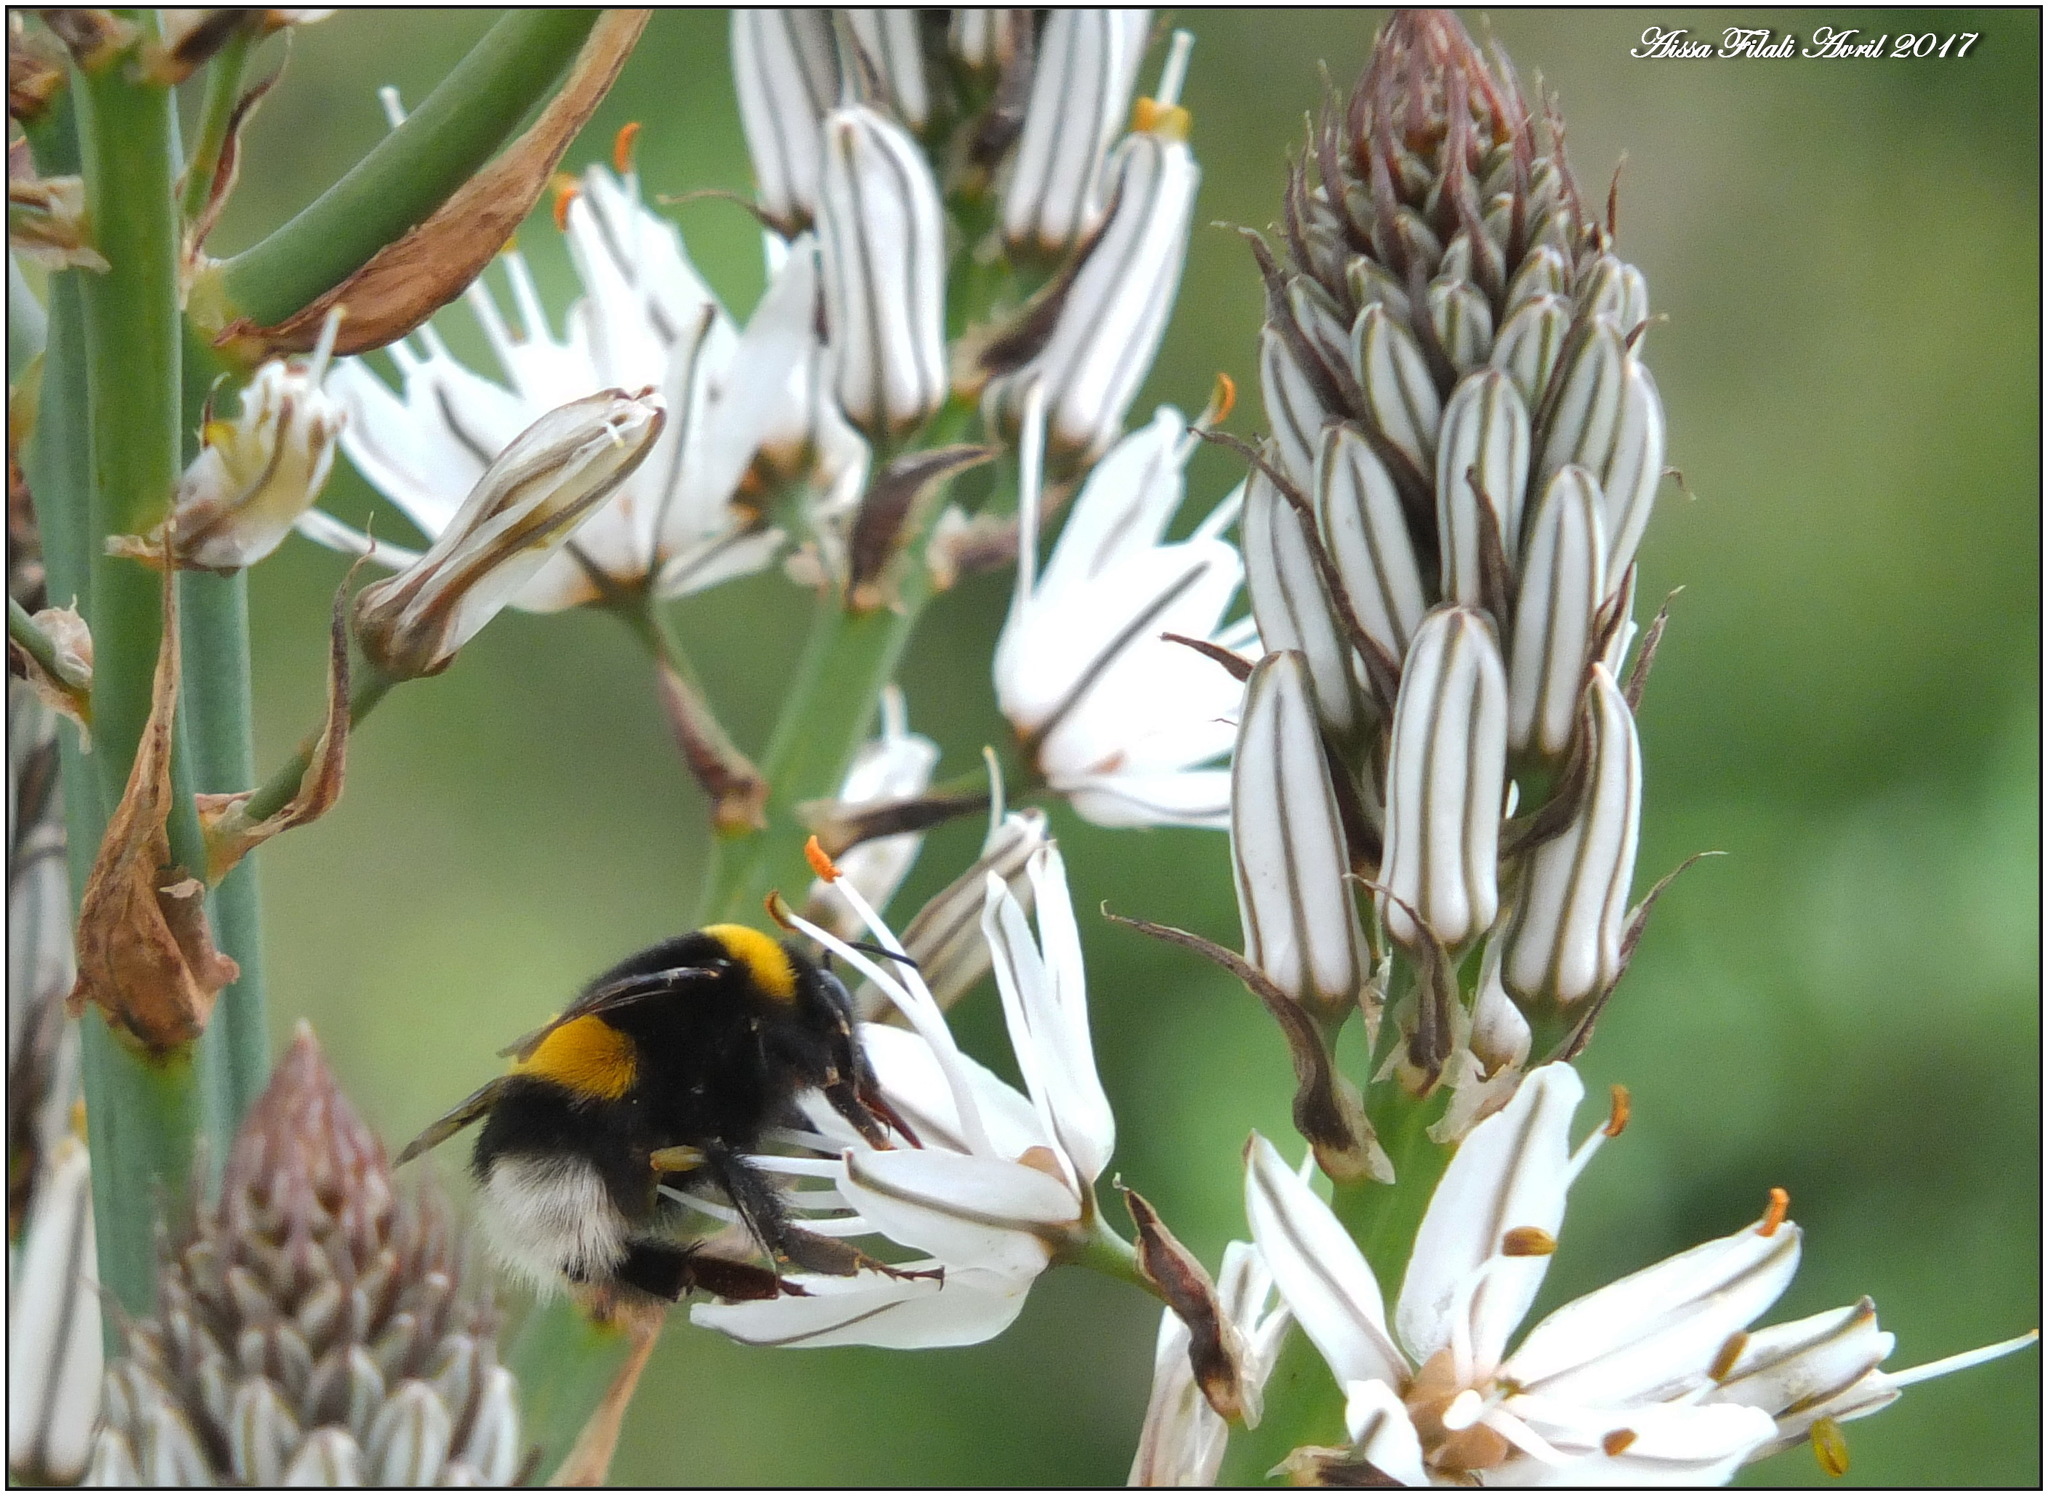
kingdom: Animalia
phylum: Arthropoda
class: Insecta
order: Hymenoptera
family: Apidae
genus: Bombus
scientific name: Bombus terrestris
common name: Buff-tailed bumblebee
